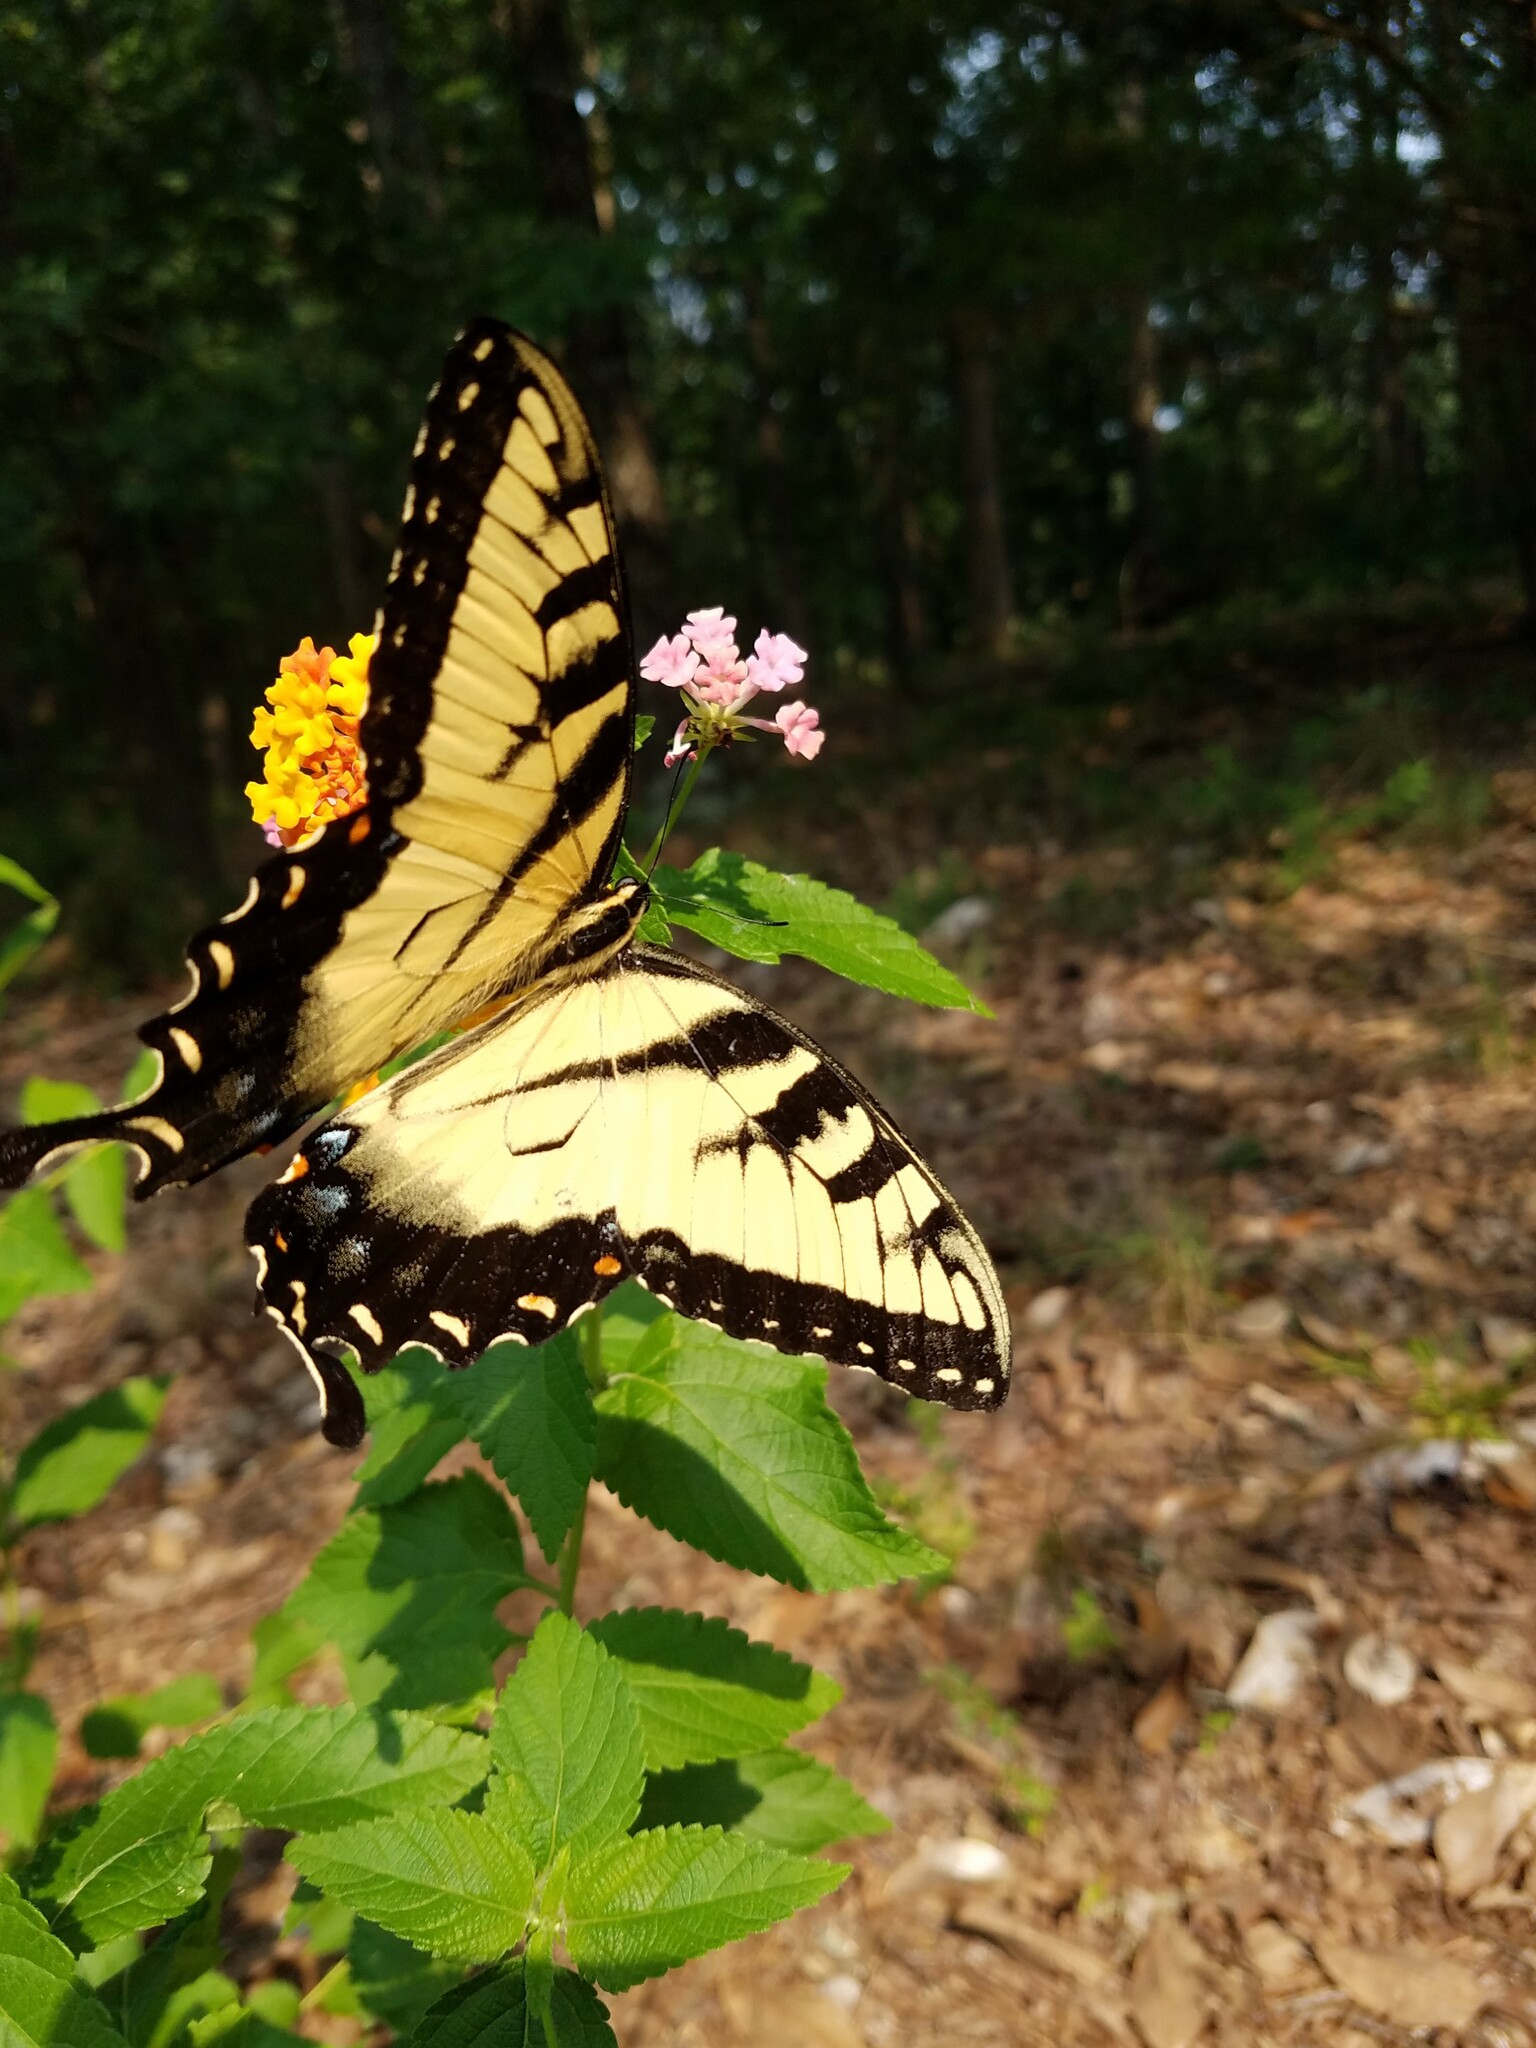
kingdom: Animalia
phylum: Arthropoda
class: Insecta
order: Lepidoptera
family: Papilionidae
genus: Papilio
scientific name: Papilio glaucus
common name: Tiger swallowtail
